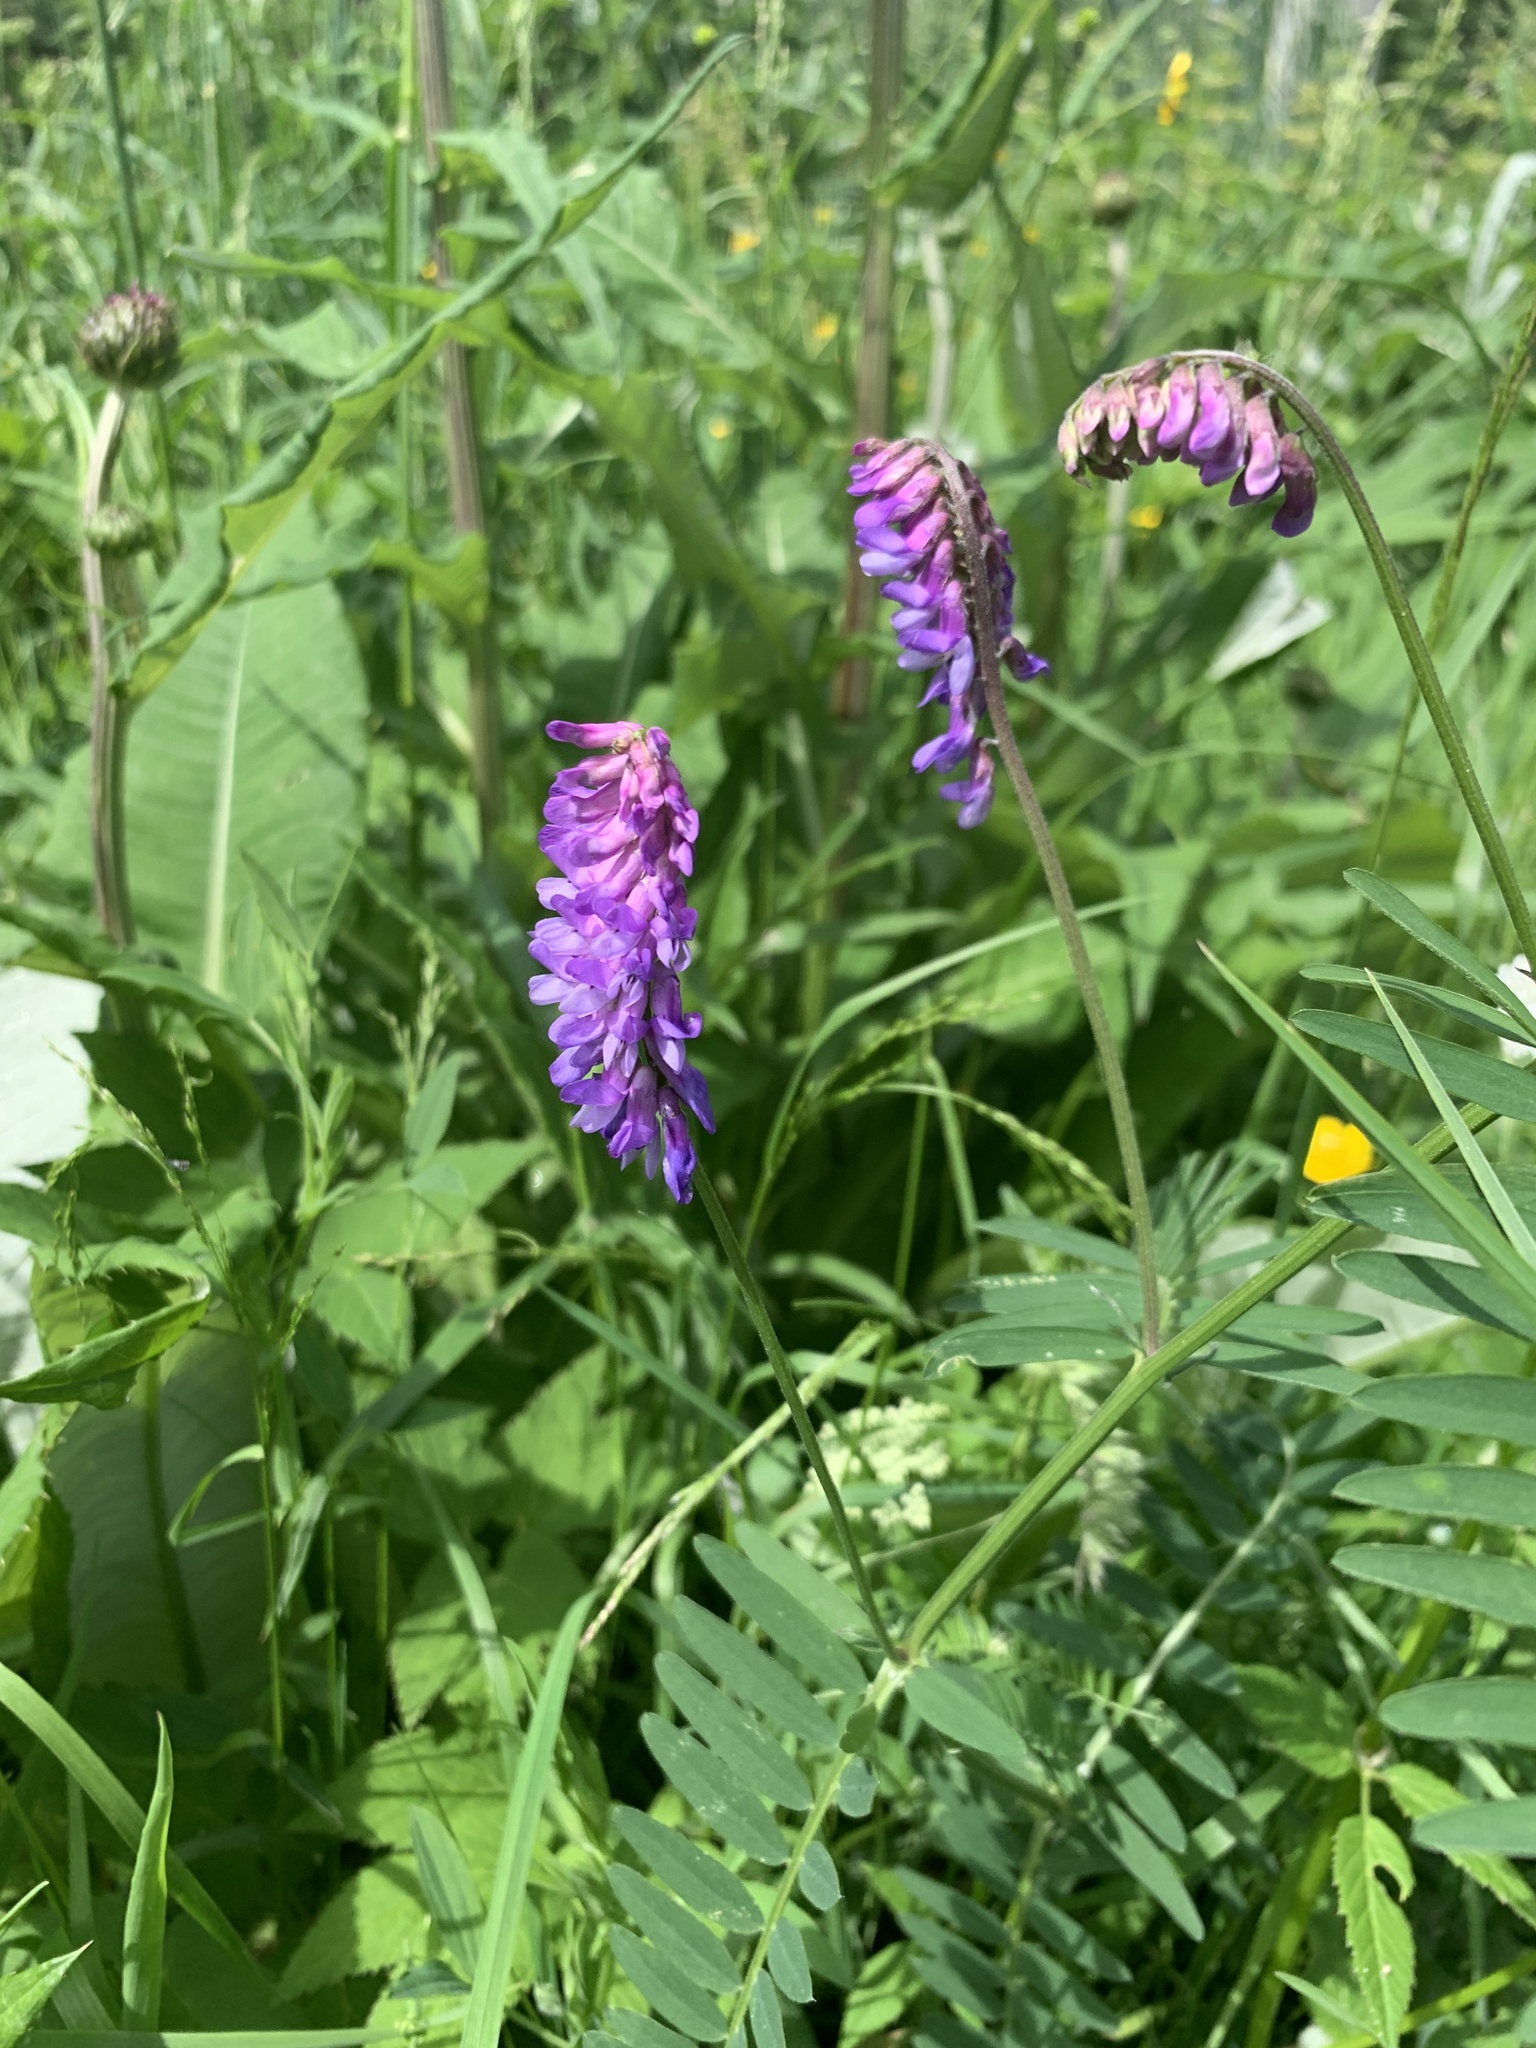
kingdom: Plantae
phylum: Tracheophyta
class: Magnoliopsida
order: Fabales
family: Fabaceae
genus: Vicia
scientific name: Vicia cracca
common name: Bird vetch
